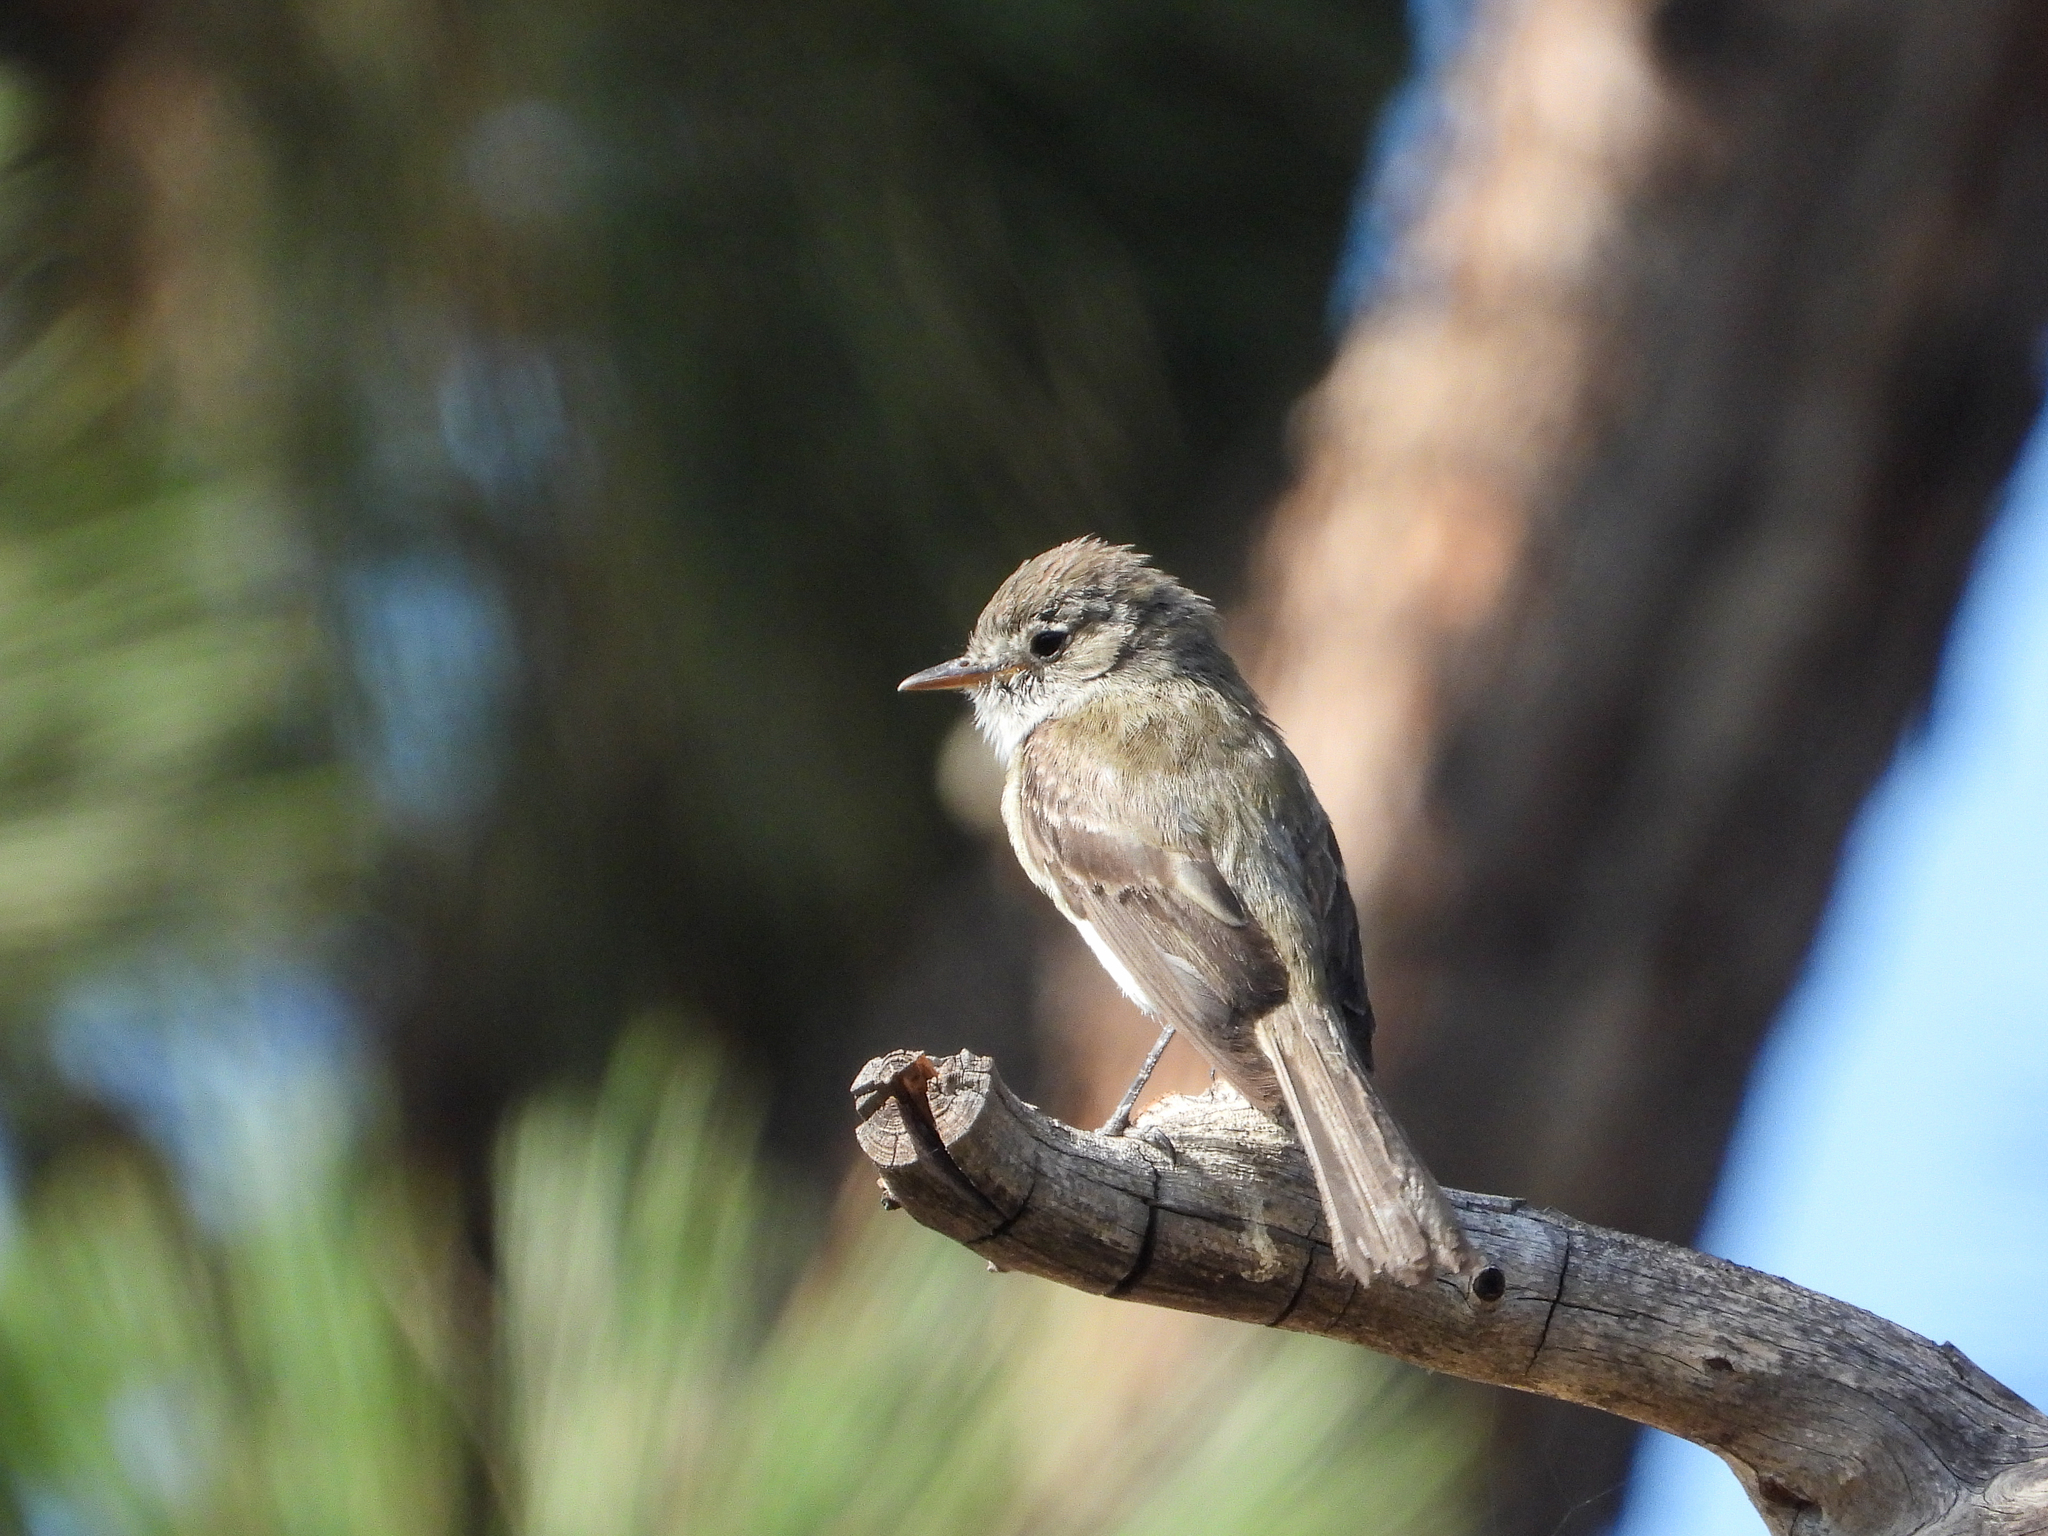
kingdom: Animalia
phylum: Chordata
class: Aves
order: Passeriformes
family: Tyrannidae
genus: Empidonax
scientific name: Empidonax oberholseri
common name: Dusky flycatcher
